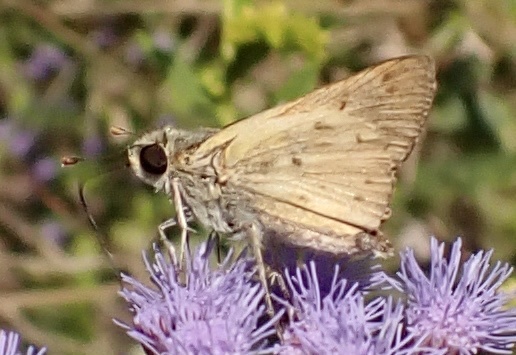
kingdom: Animalia
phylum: Arthropoda
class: Insecta
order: Lepidoptera
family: Hesperiidae
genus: Hylephila
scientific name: Hylephila phyleus
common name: Fiery skipper
